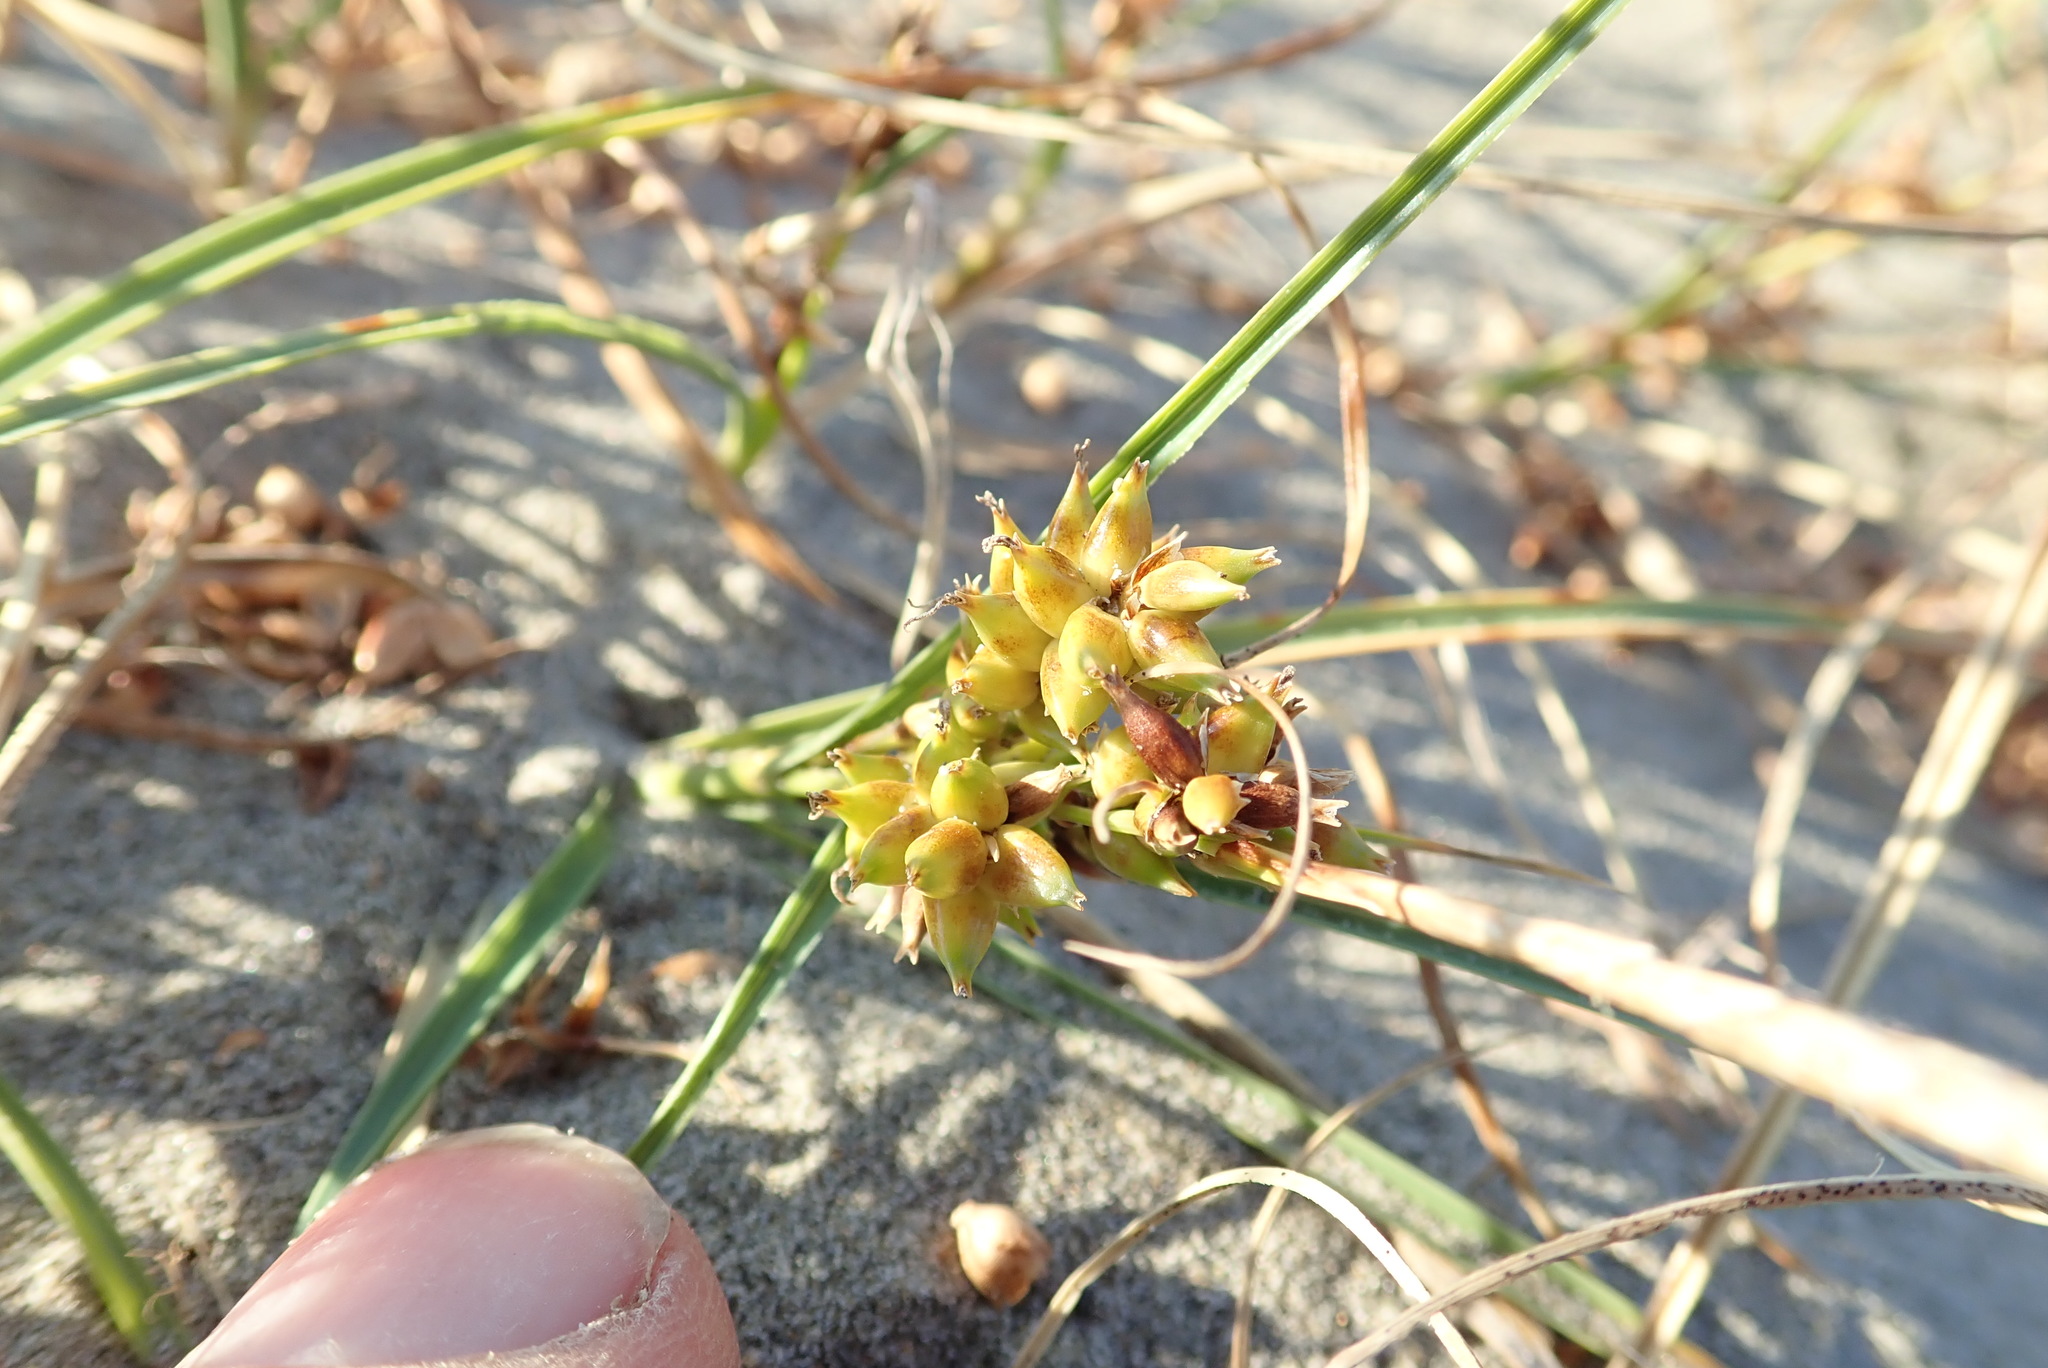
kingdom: Plantae
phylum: Tracheophyta
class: Liliopsida
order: Poales
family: Cyperaceae
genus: Carex
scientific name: Carex pumila
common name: Dwarf sedge
